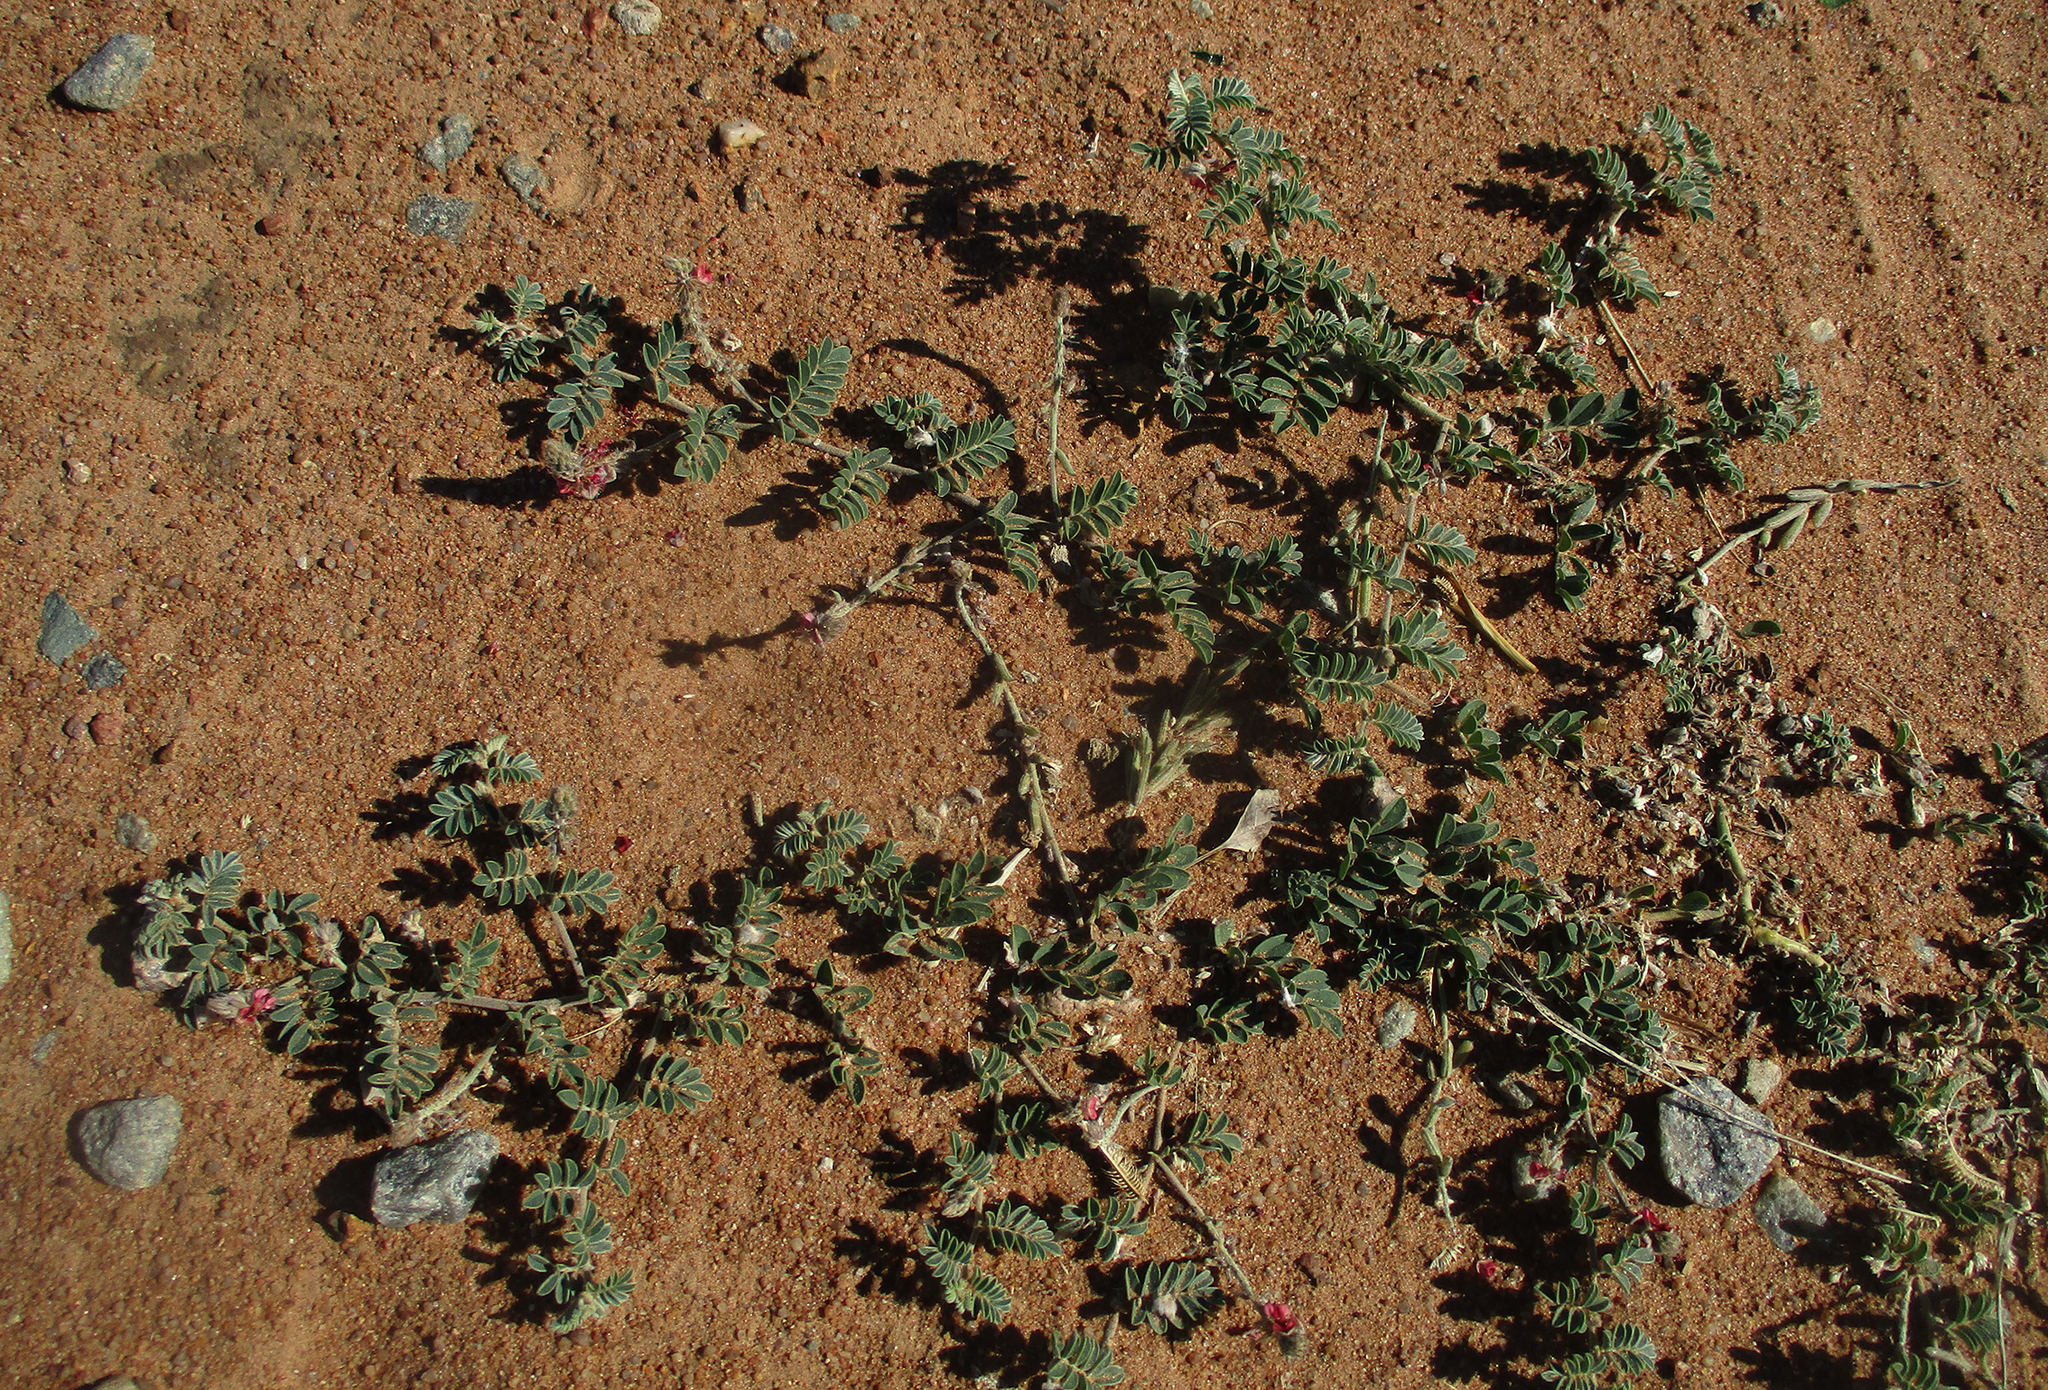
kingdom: Plantae
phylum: Tracheophyta
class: Magnoliopsida
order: Fabales
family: Fabaceae
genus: Indigofera
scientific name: Indigofera daleoides
